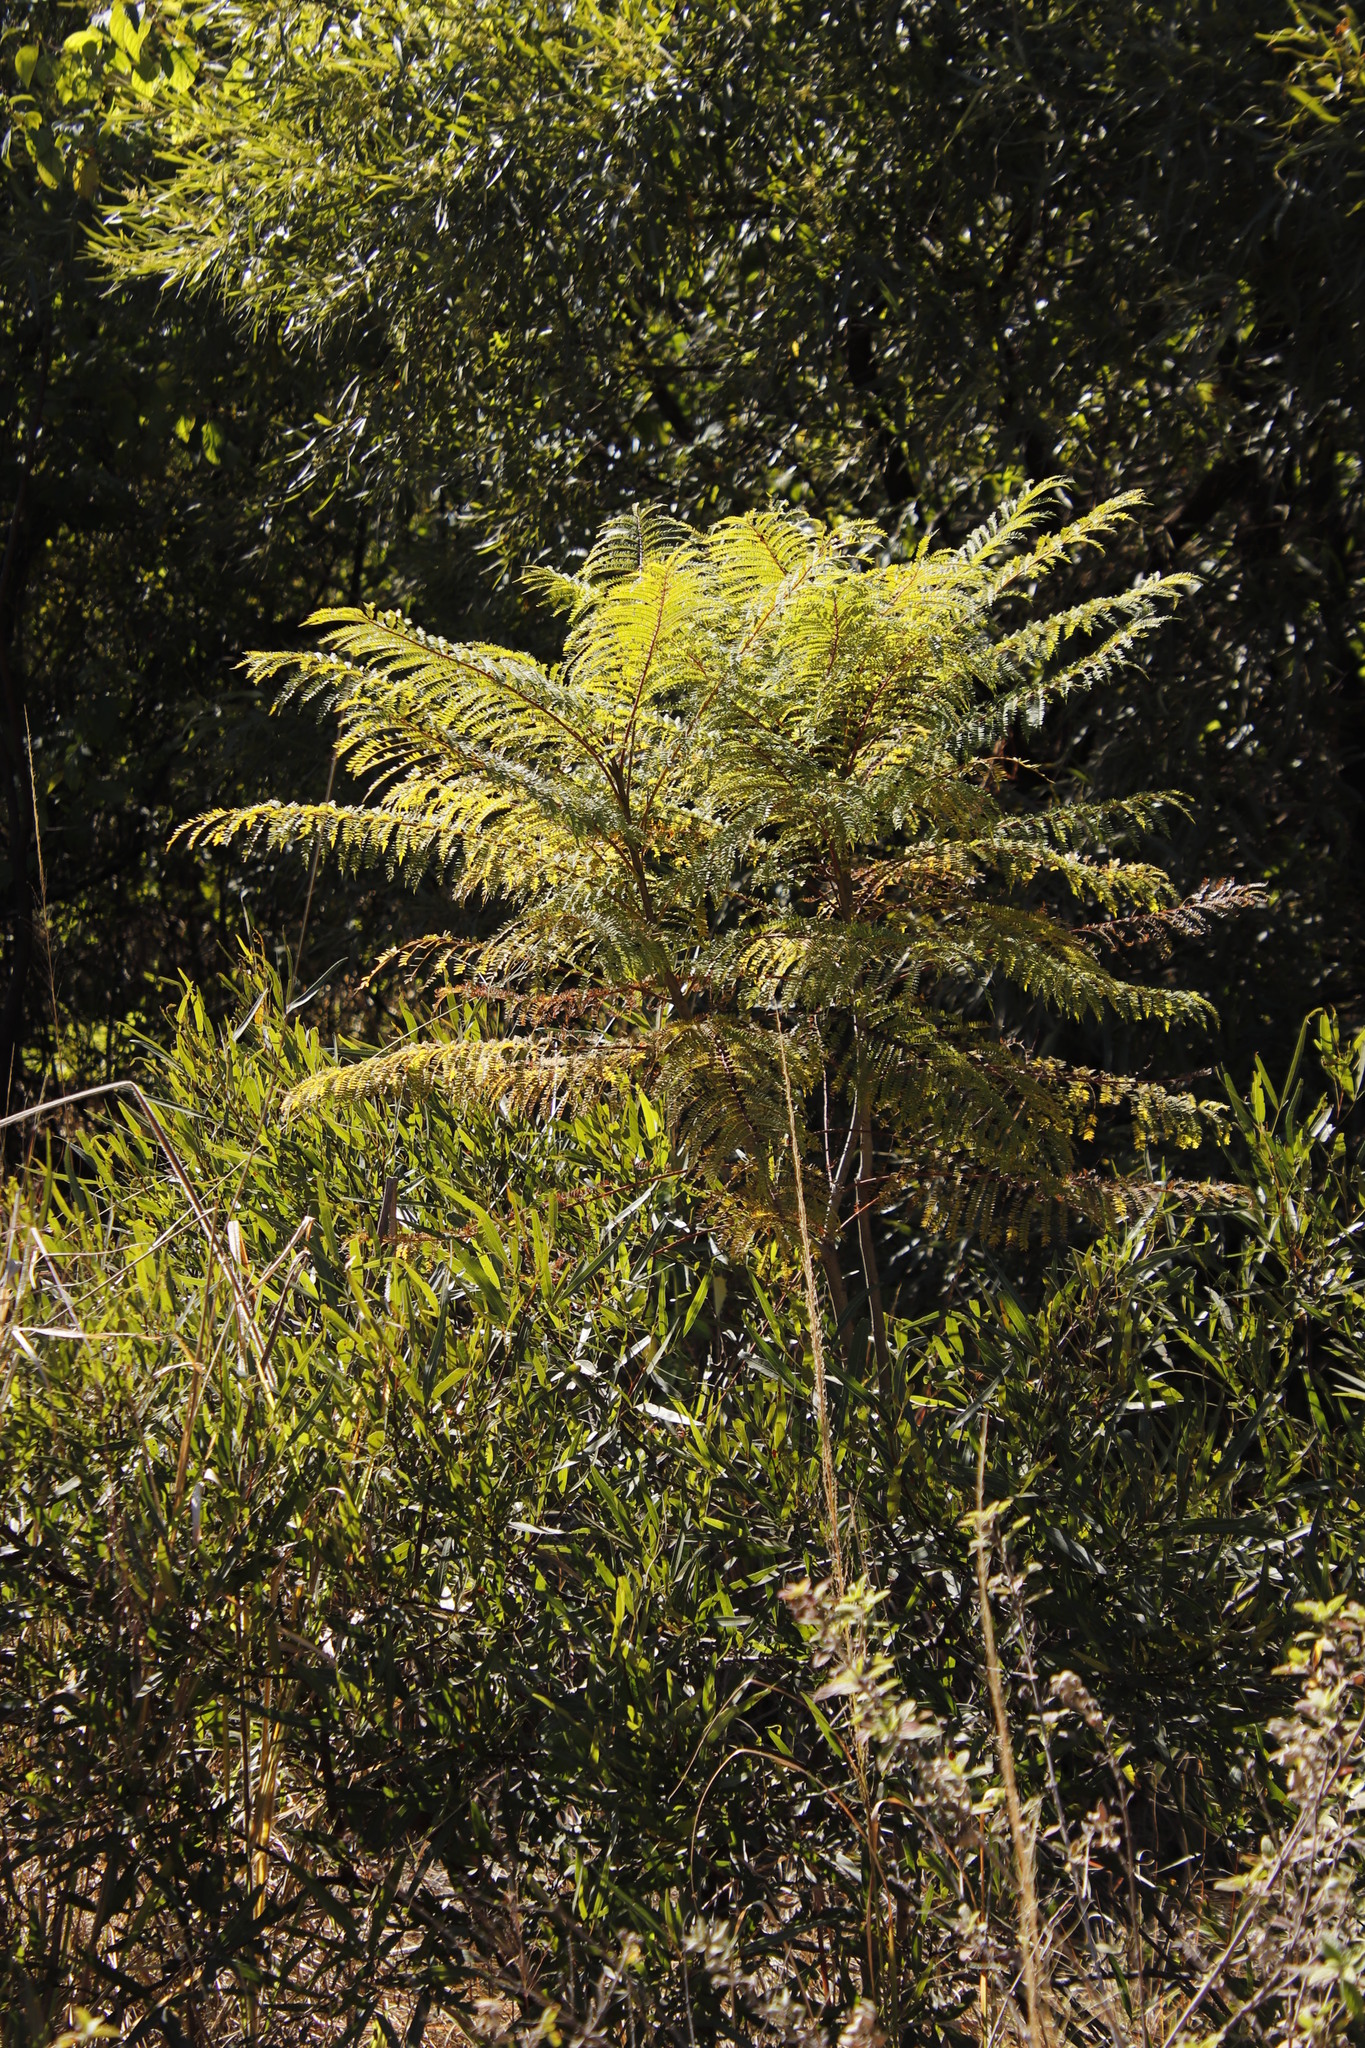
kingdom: Plantae
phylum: Tracheophyta
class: Magnoliopsida
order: Lamiales
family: Bignoniaceae
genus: Jacaranda
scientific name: Jacaranda mimosifolia
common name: Black poui
